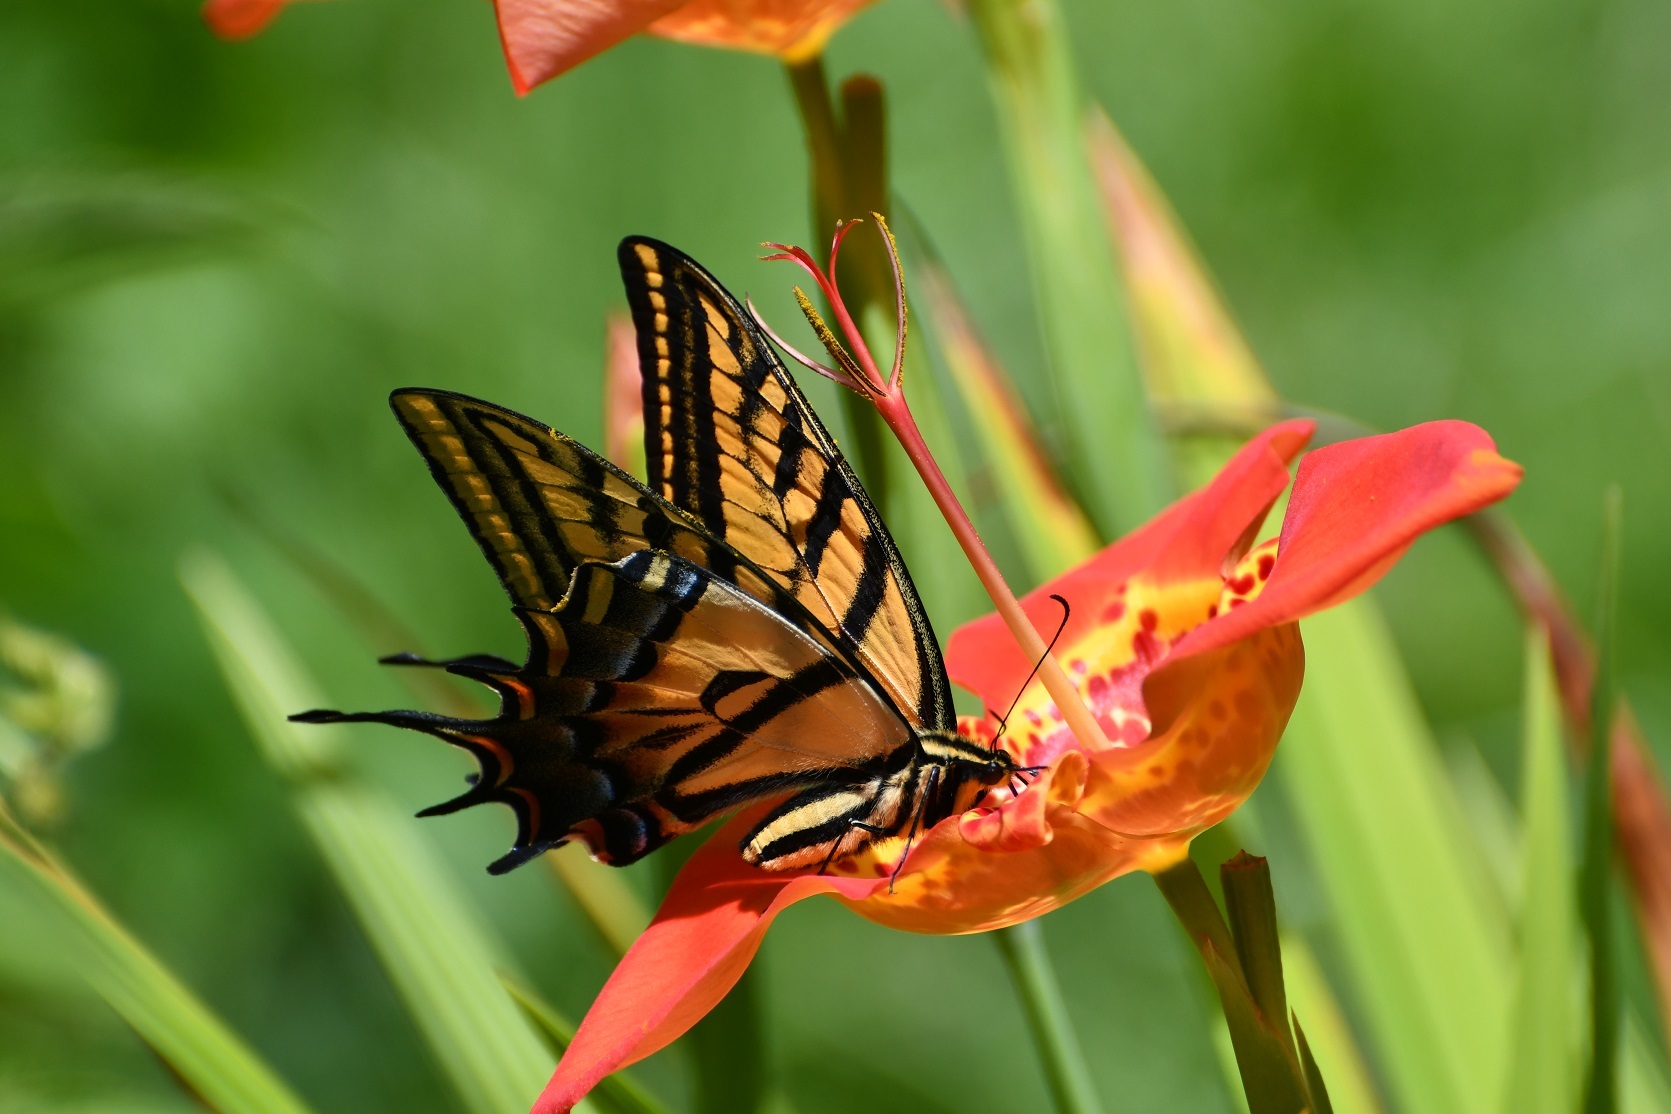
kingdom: Animalia
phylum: Arthropoda
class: Insecta
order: Lepidoptera
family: Papilionidae
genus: Papilio
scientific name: Papilio multicaudata
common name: Two-tailed tiger swallowtail
